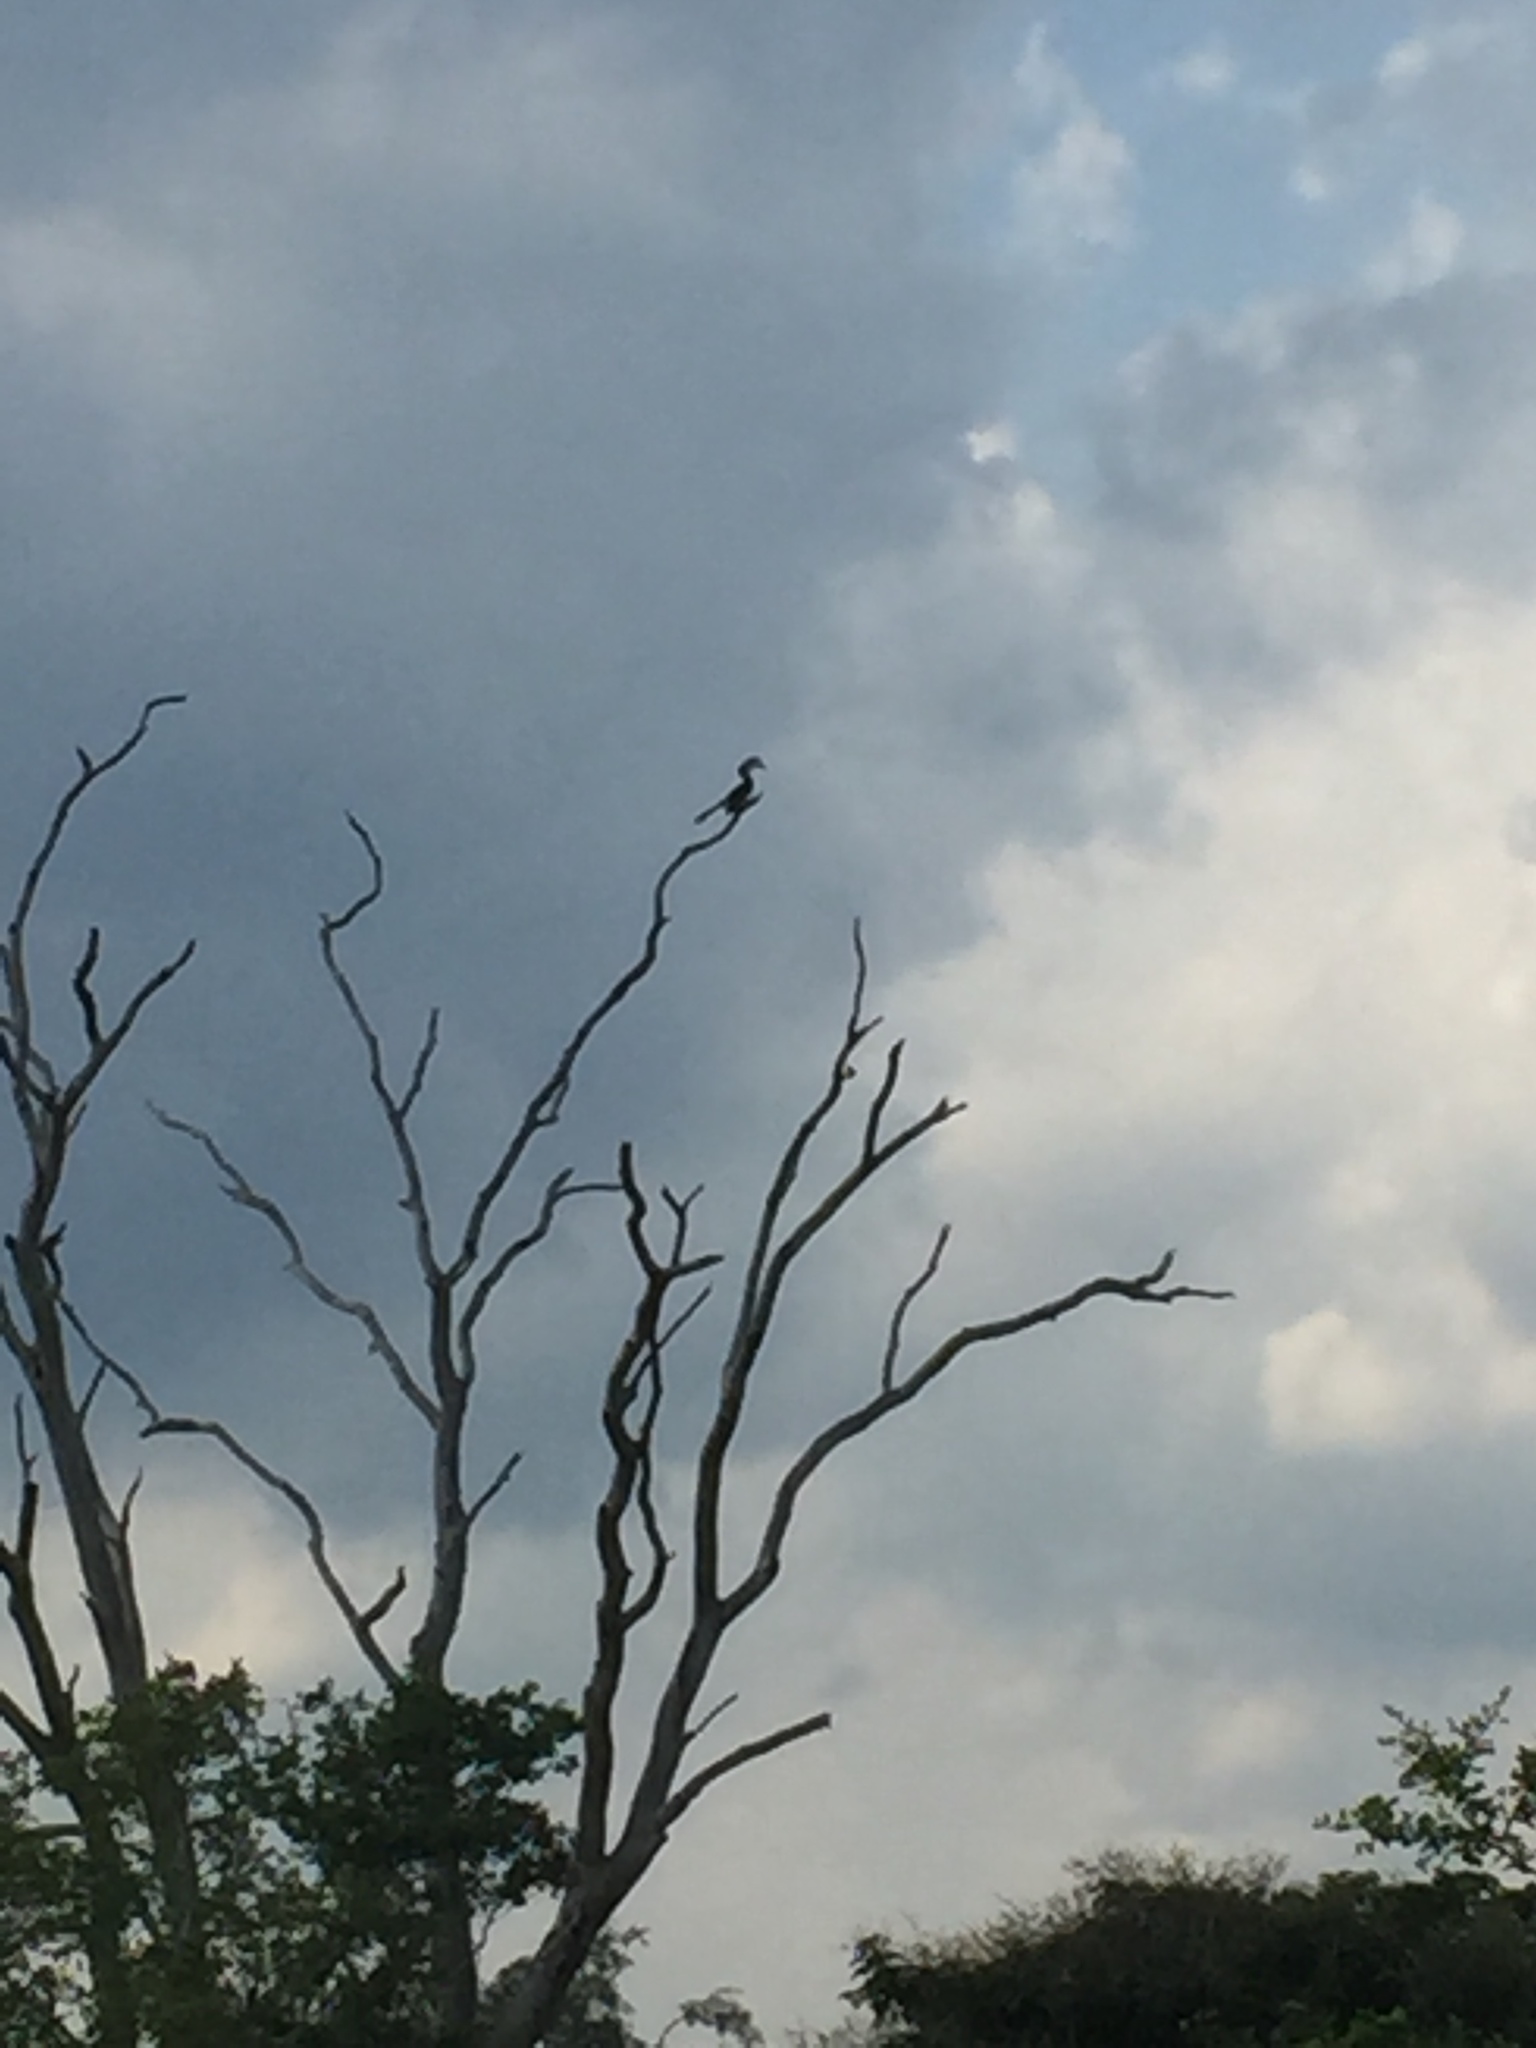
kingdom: Animalia
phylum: Chordata
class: Aves
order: Bucerotiformes
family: Bucerotidae
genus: Anthracoceros
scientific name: Anthracoceros coronatus
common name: Malabar pied hornbill
